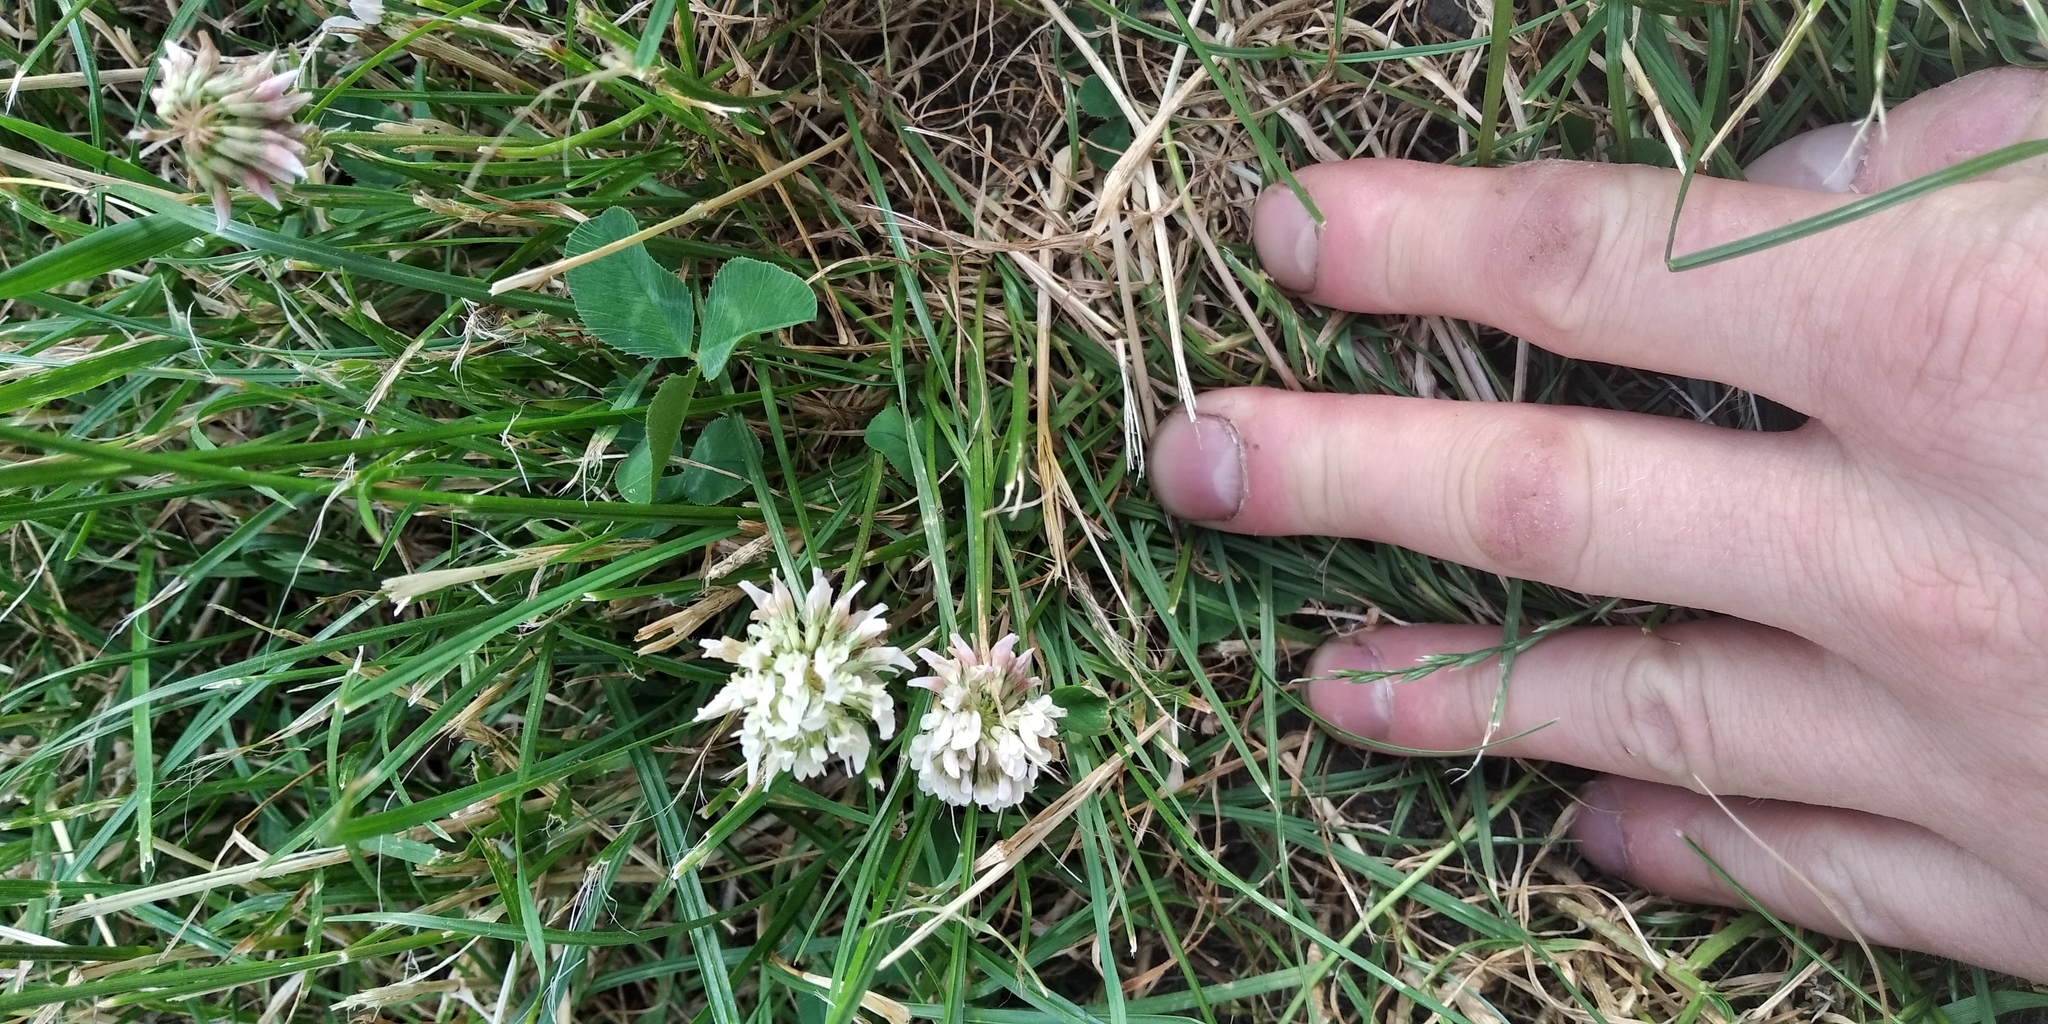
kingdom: Plantae
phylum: Tracheophyta
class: Magnoliopsida
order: Fabales
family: Fabaceae
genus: Trifolium
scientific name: Trifolium repens
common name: White clover
